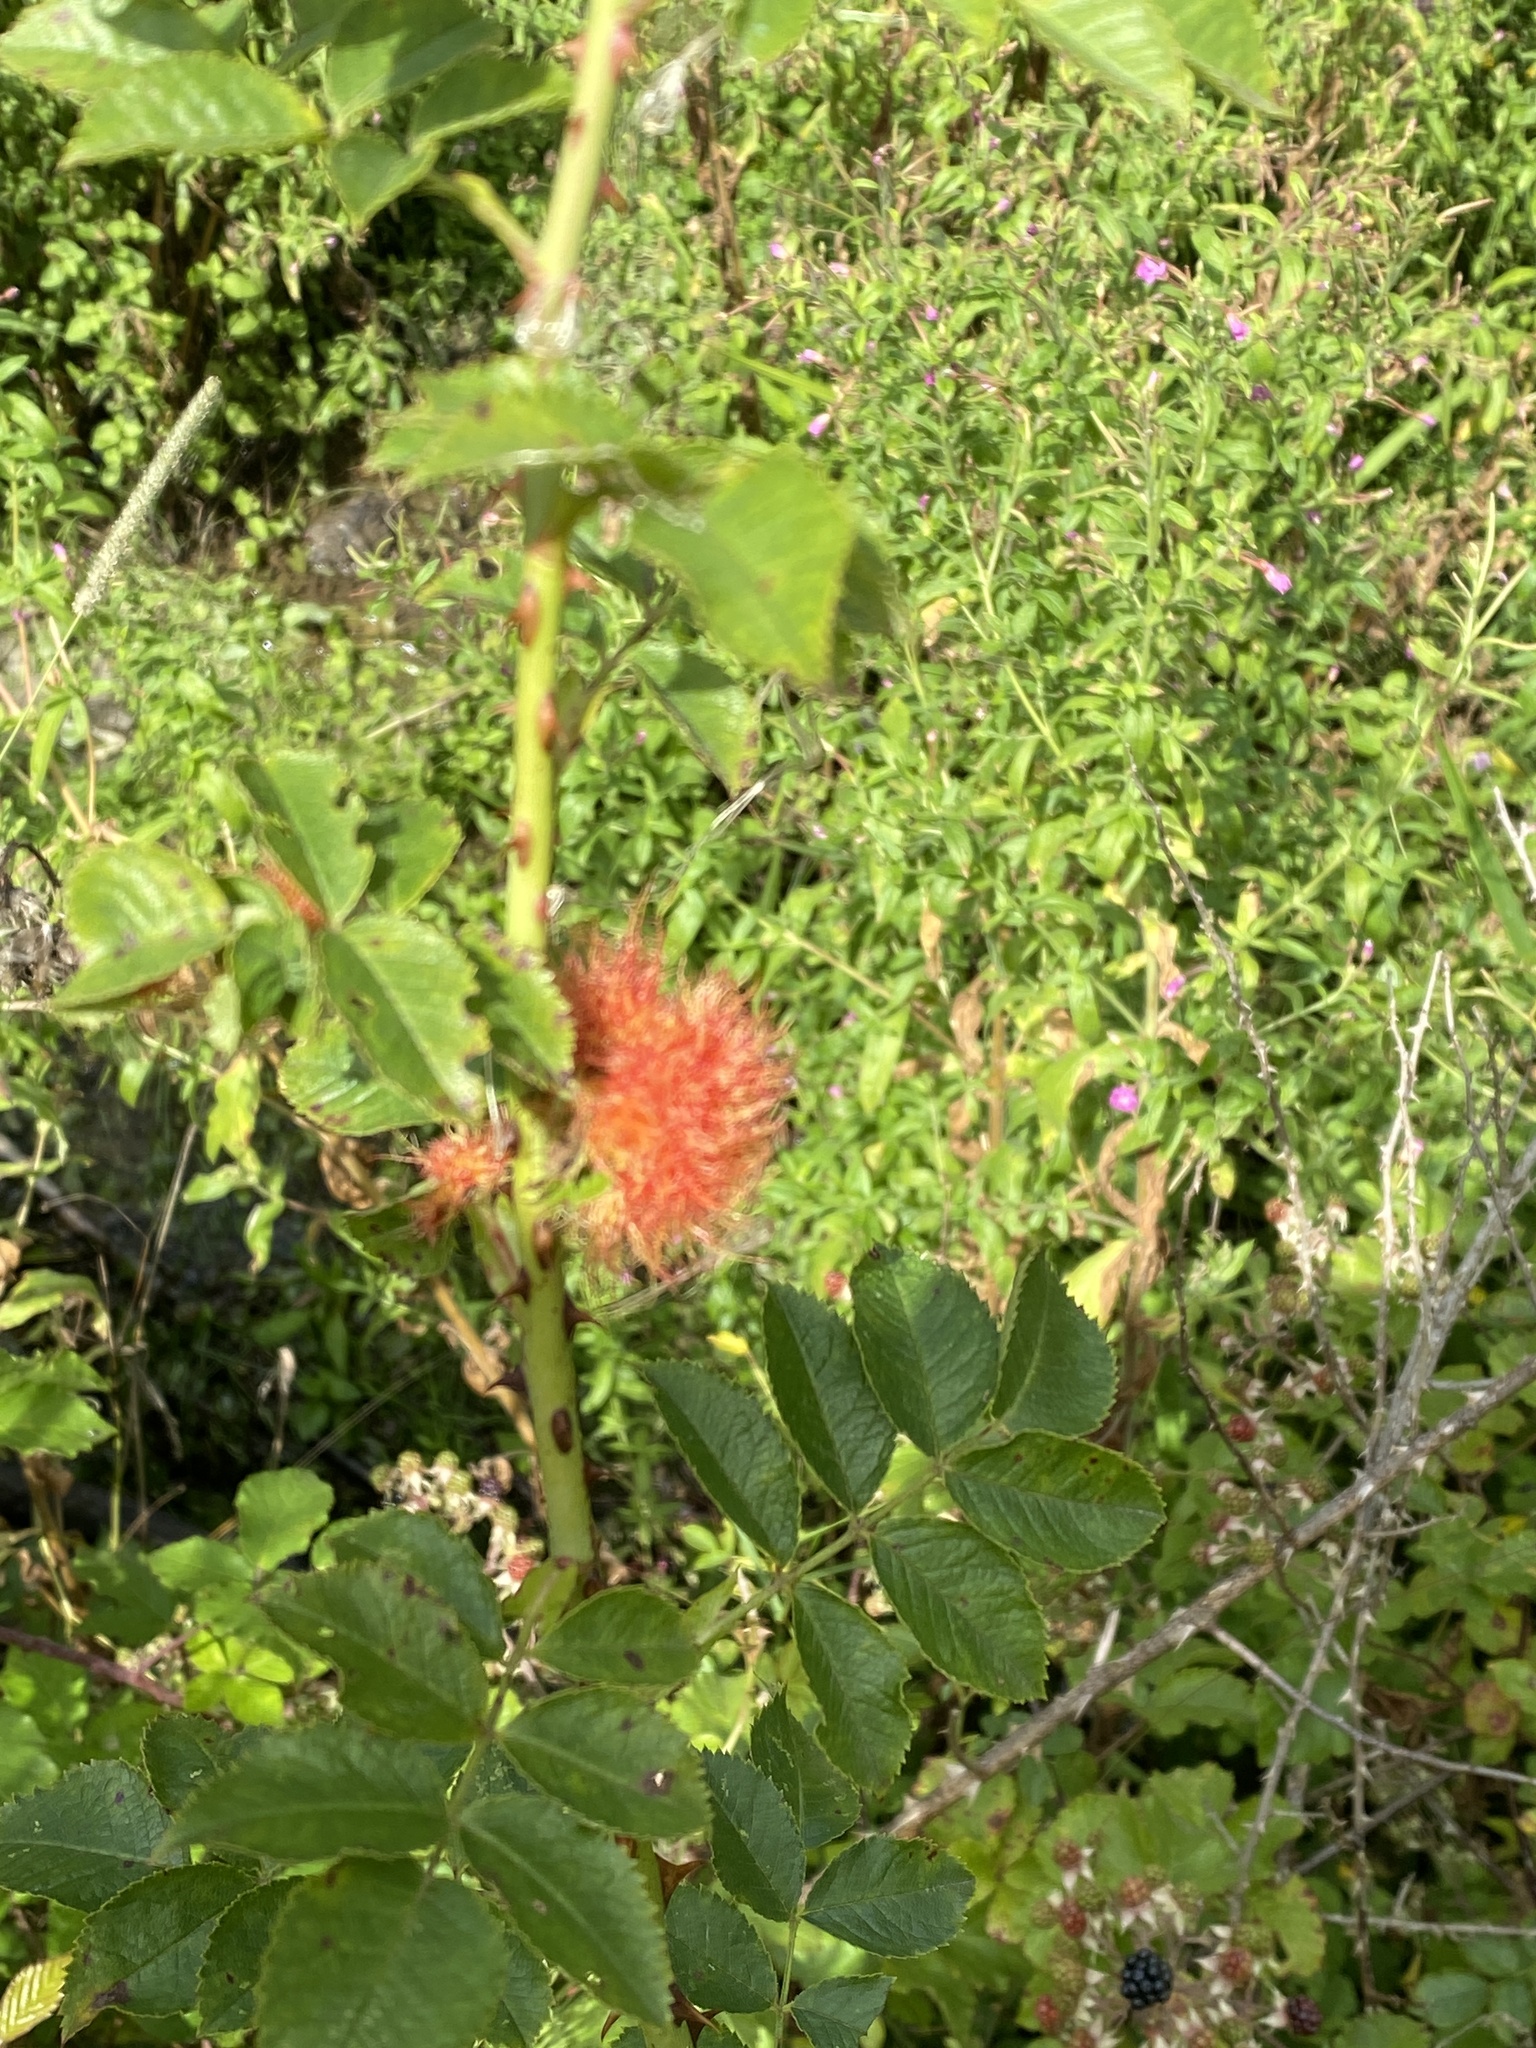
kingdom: Animalia
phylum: Arthropoda
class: Insecta
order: Hymenoptera
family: Cynipidae
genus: Diplolepis
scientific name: Diplolepis rosae
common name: Bedeguar gall
